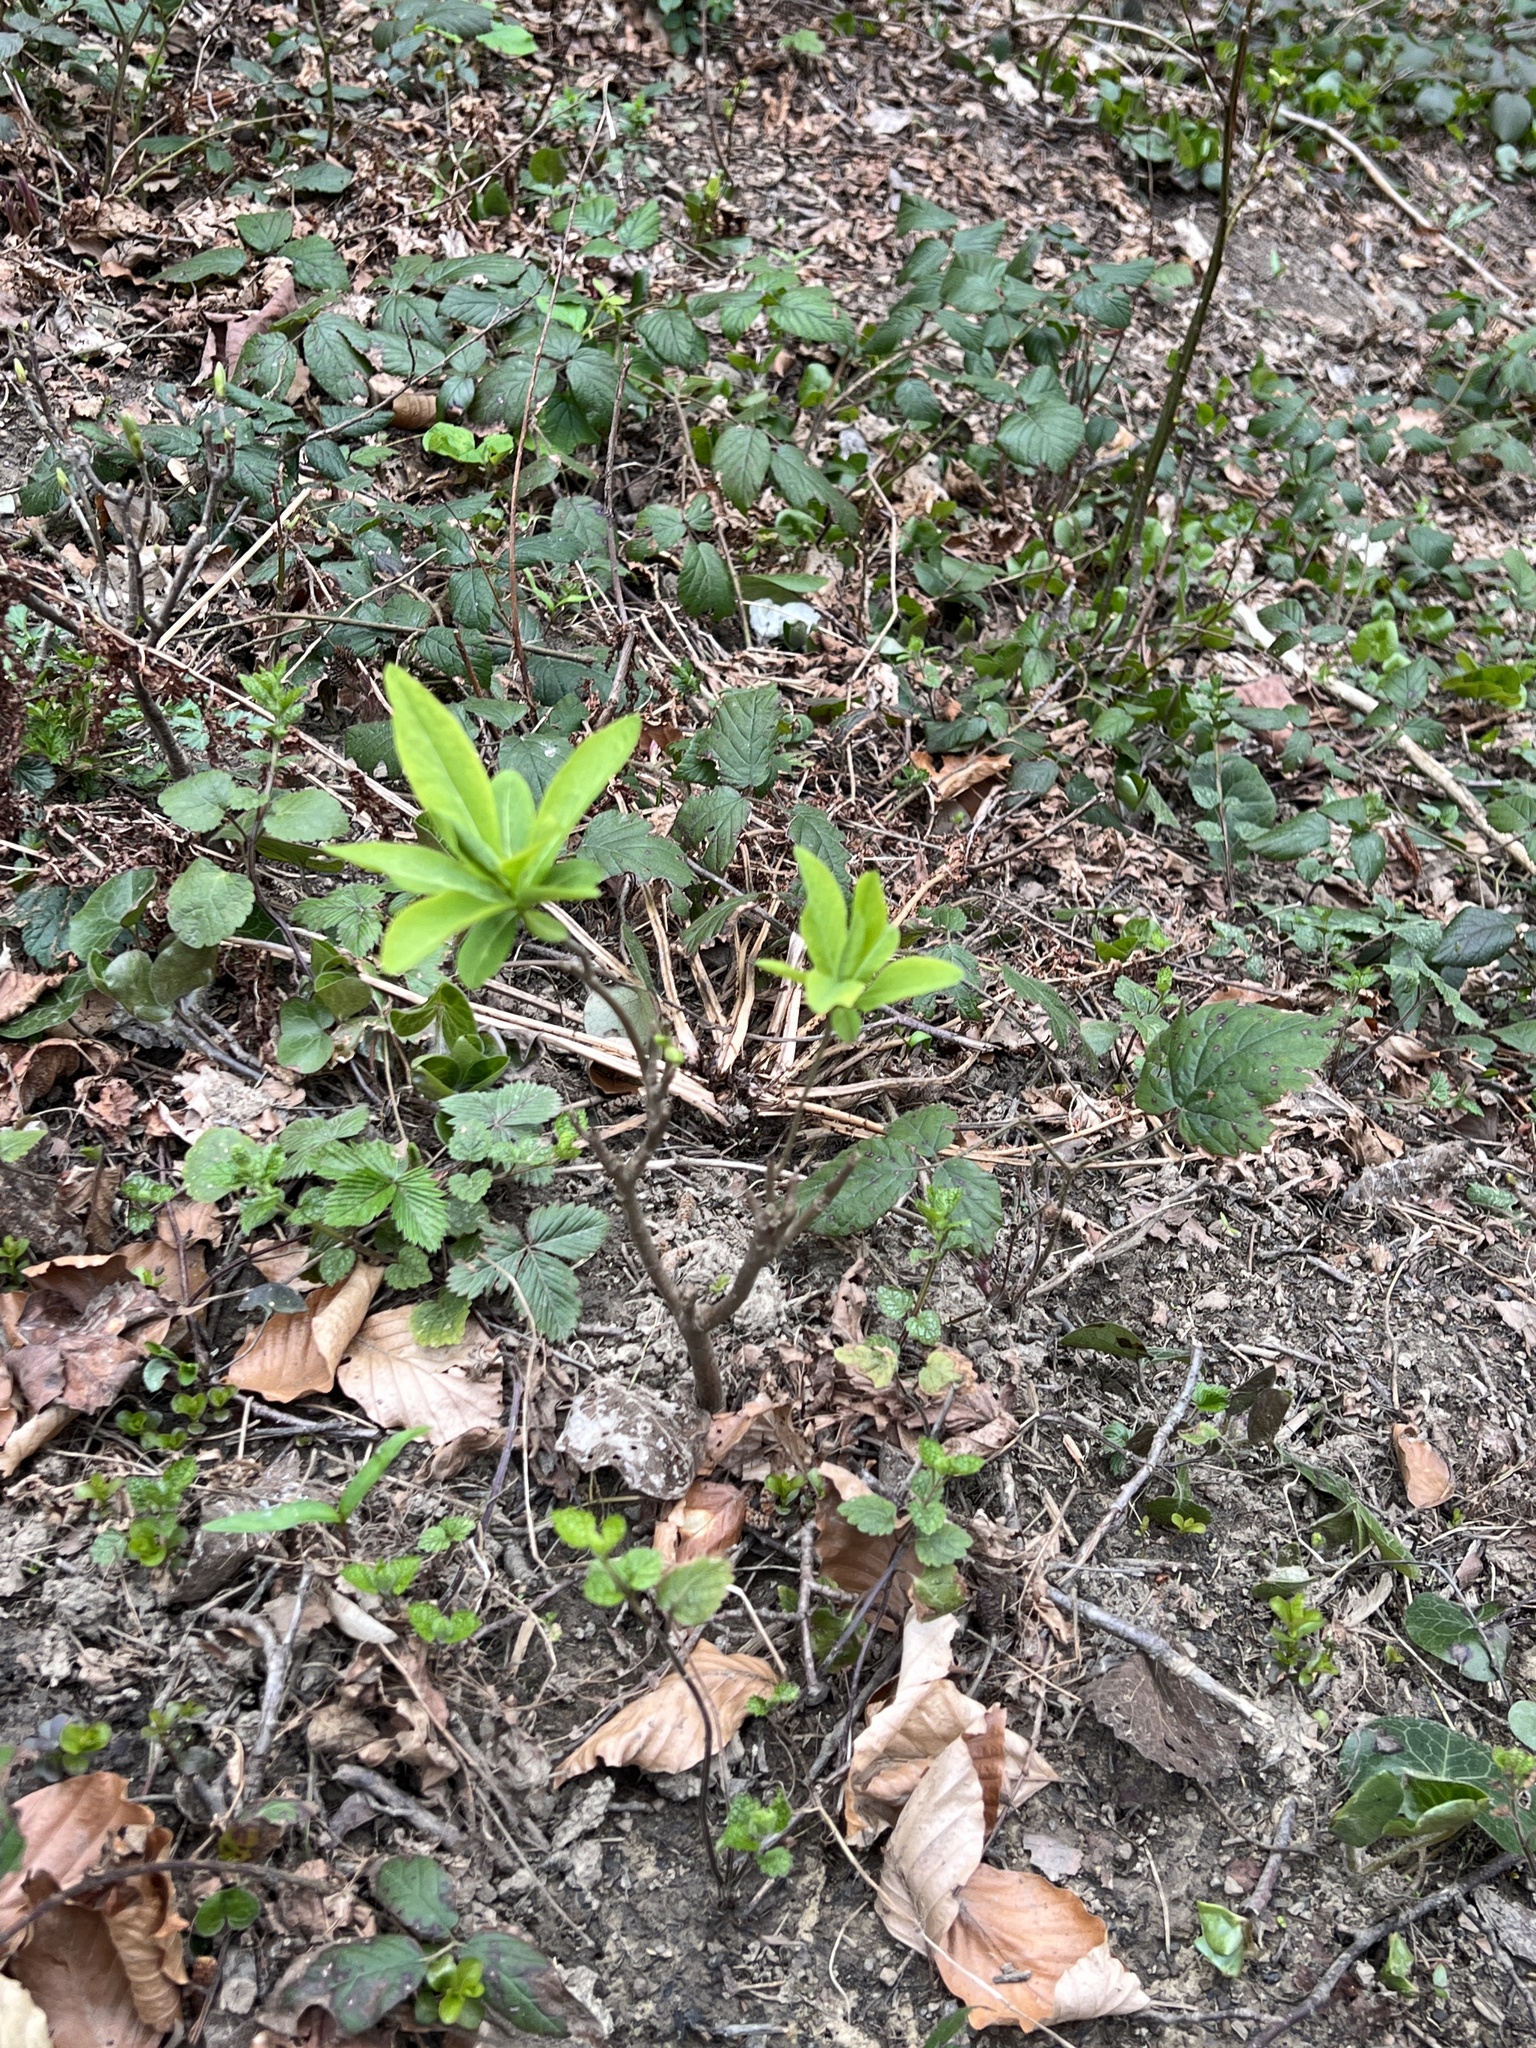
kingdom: Plantae
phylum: Tracheophyta
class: Magnoliopsida
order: Malvales
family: Thymelaeaceae
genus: Daphne
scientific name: Daphne mezereum
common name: Mezereon
